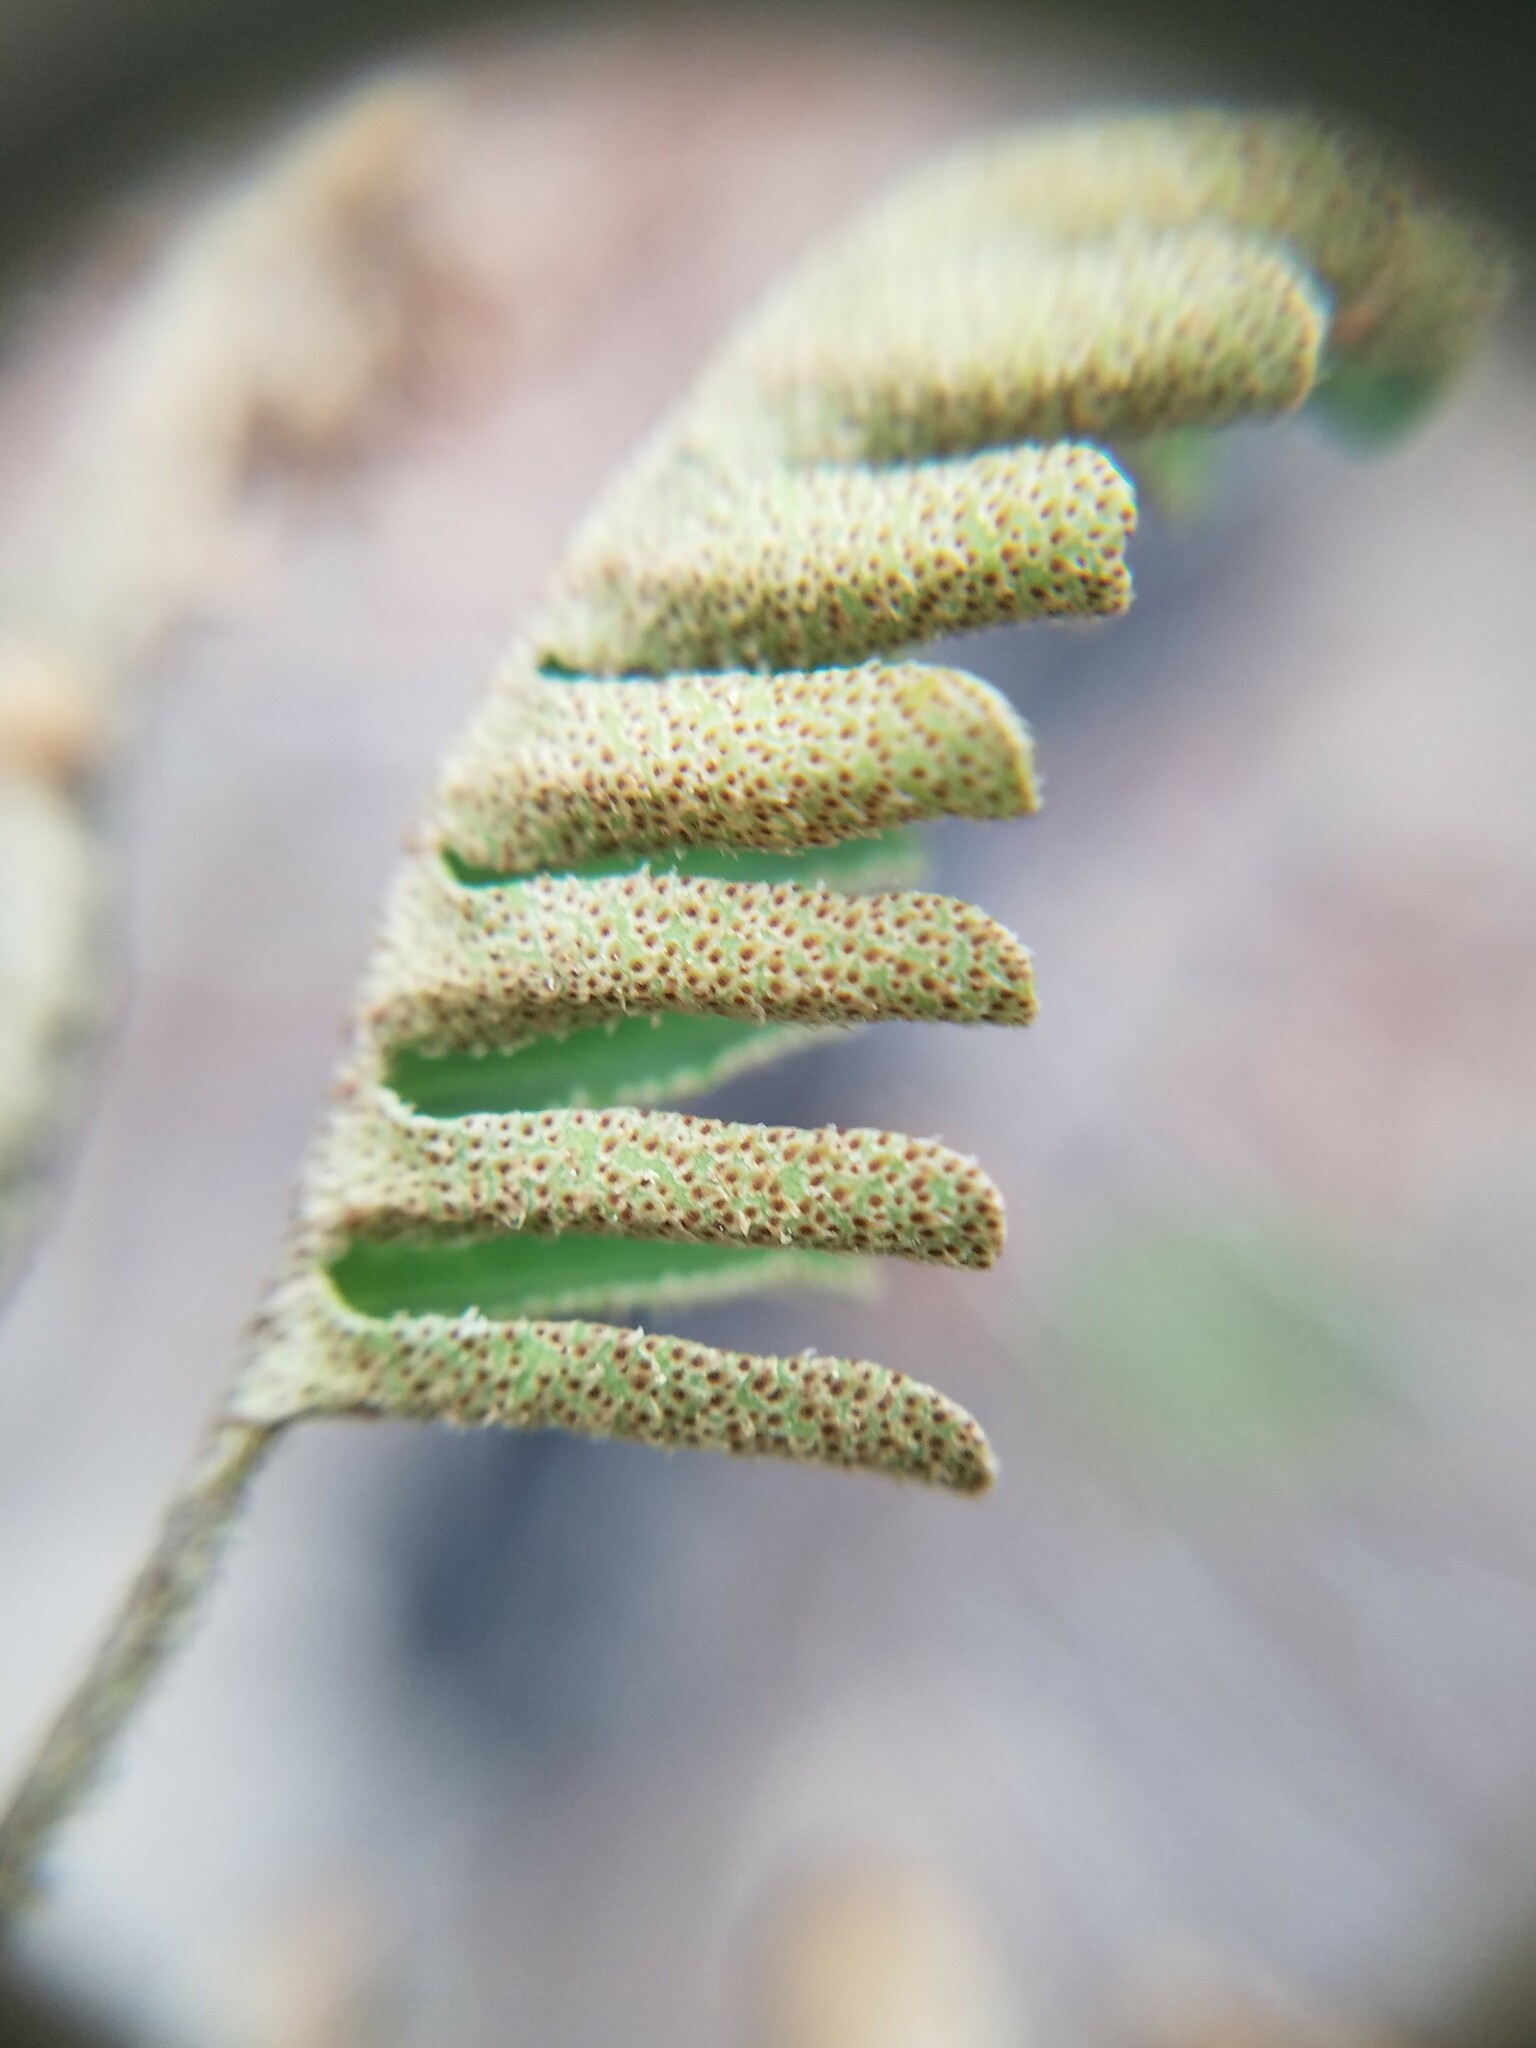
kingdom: Plantae
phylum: Tracheophyta
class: Polypodiopsida
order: Polypodiales
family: Polypodiaceae
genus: Pleopeltis
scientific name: Pleopeltis michauxiana
